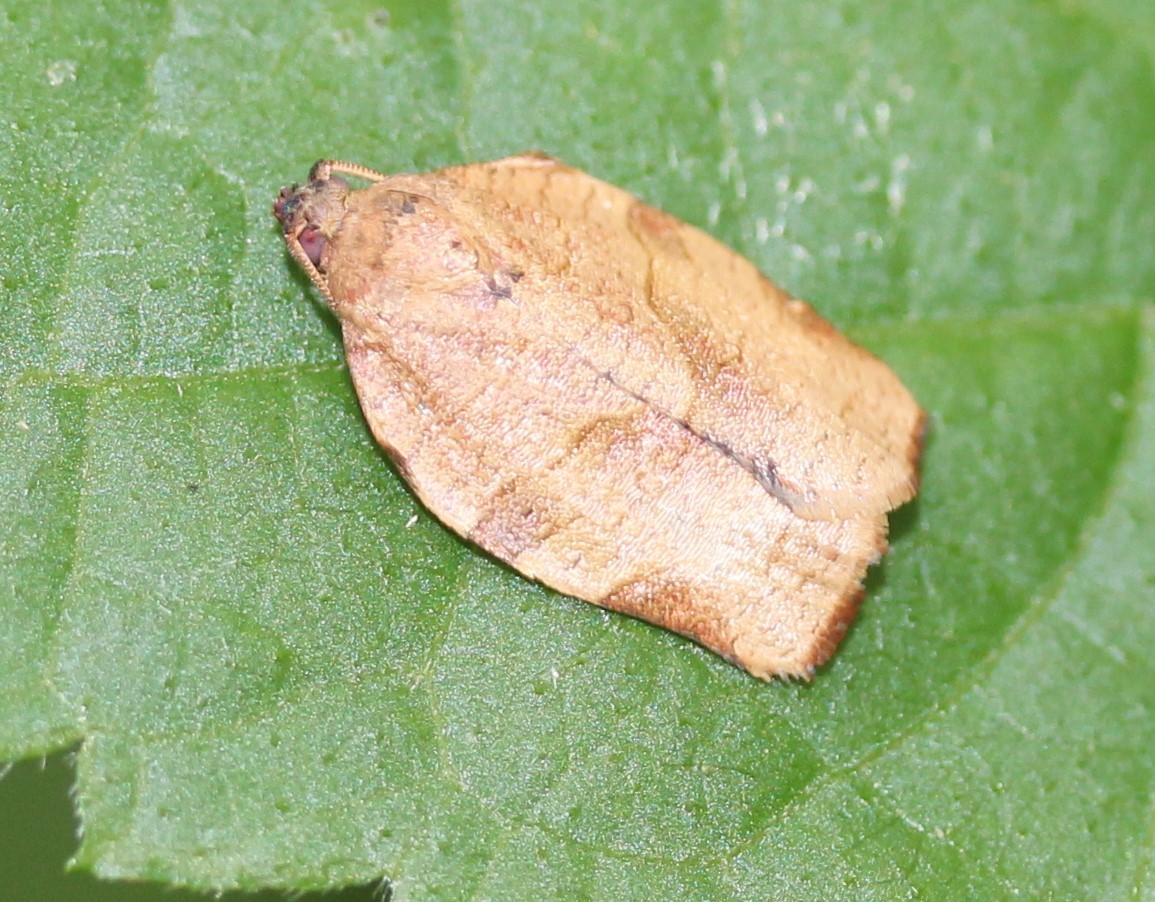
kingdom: Animalia
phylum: Arthropoda
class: Insecta
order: Lepidoptera
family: Tortricidae
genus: Choristoneura
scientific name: Choristoneura rosaceana
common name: Oblique-banded leafroller moth
